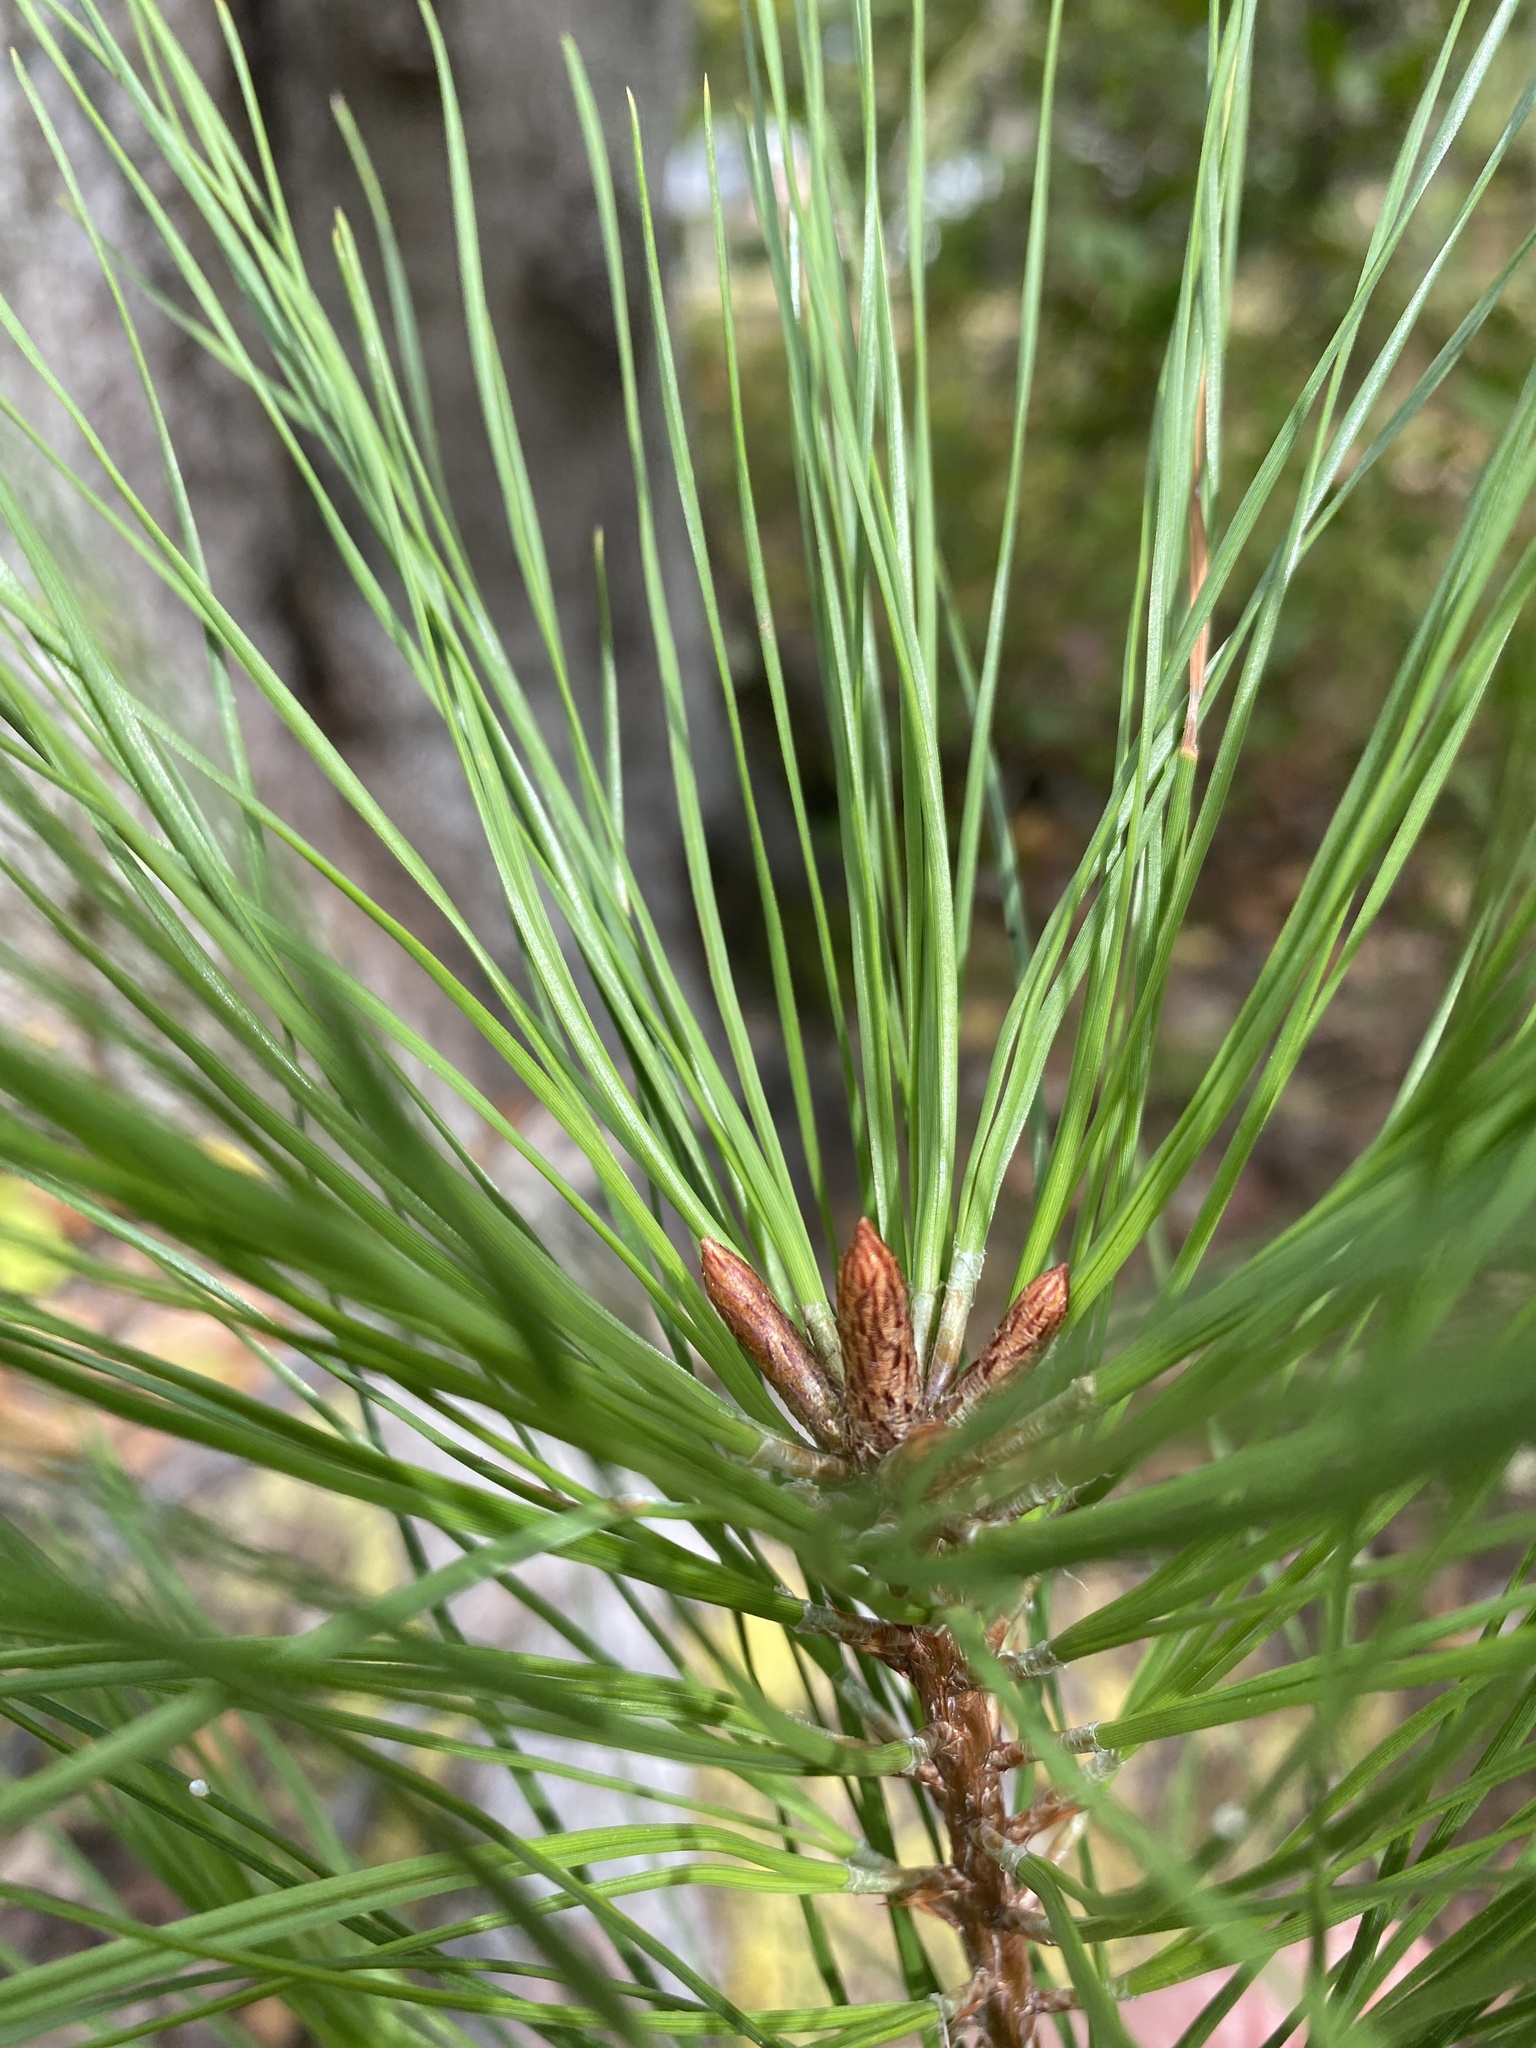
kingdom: Plantae
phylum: Tracheophyta
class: Pinopsida
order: Pinales
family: Pinaceae
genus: Pinus
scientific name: Pinus taeda
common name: Loblolly pine
